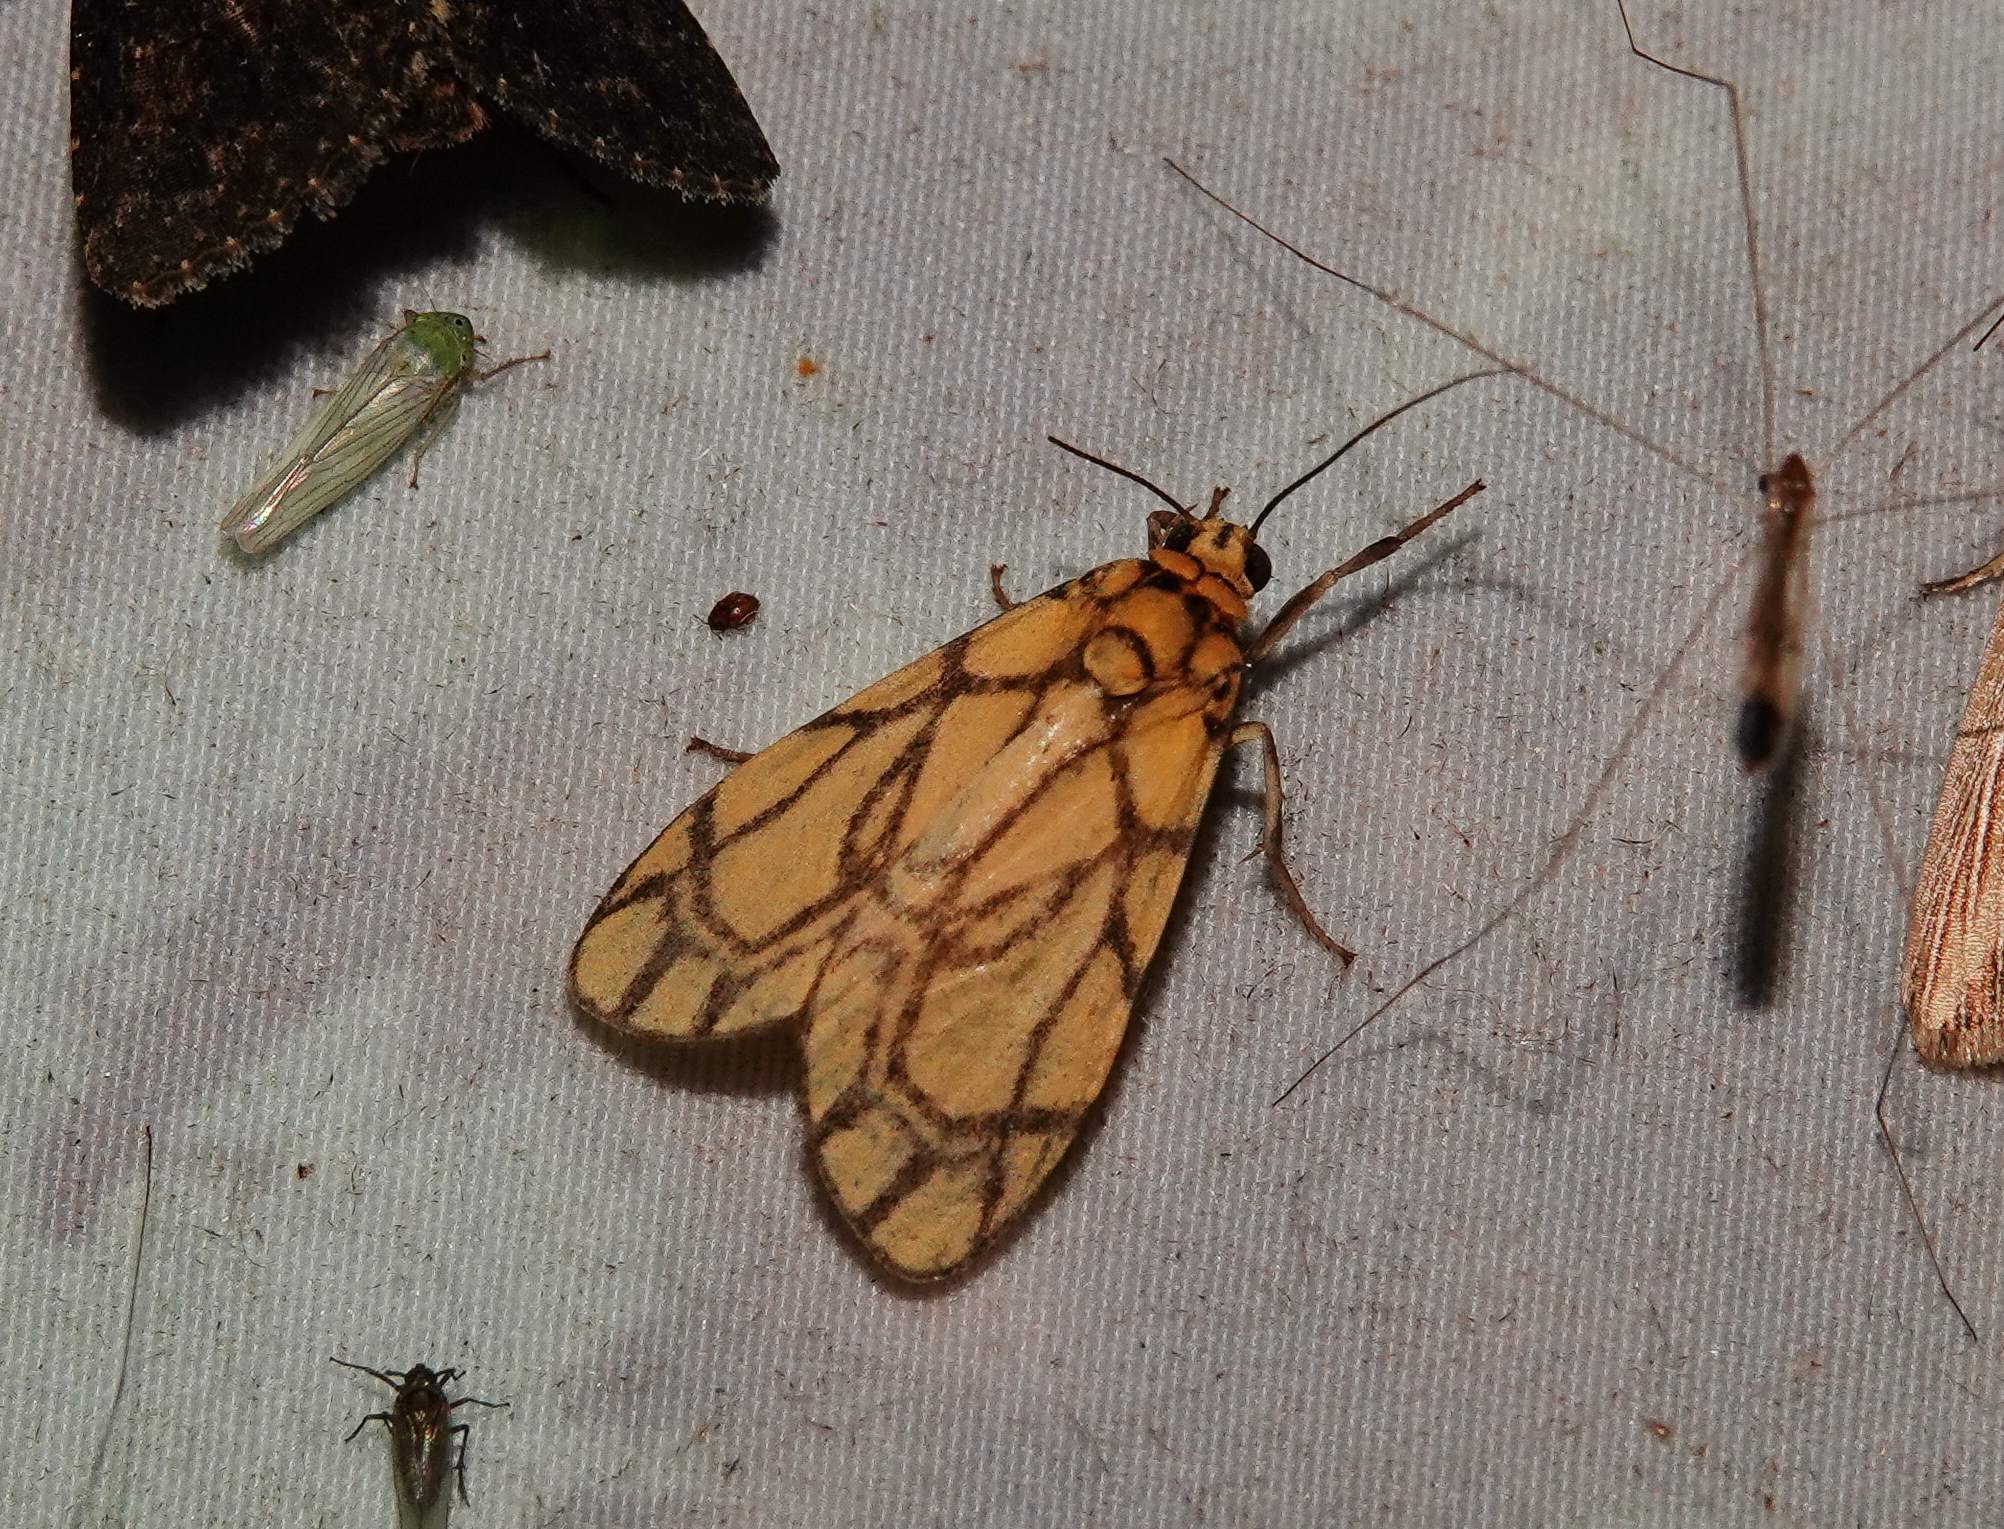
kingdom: Animalia
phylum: Arthropoda
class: Insecta
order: Lepidoptera
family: Erebidae
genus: Cyme
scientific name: Cyme euprepioides
